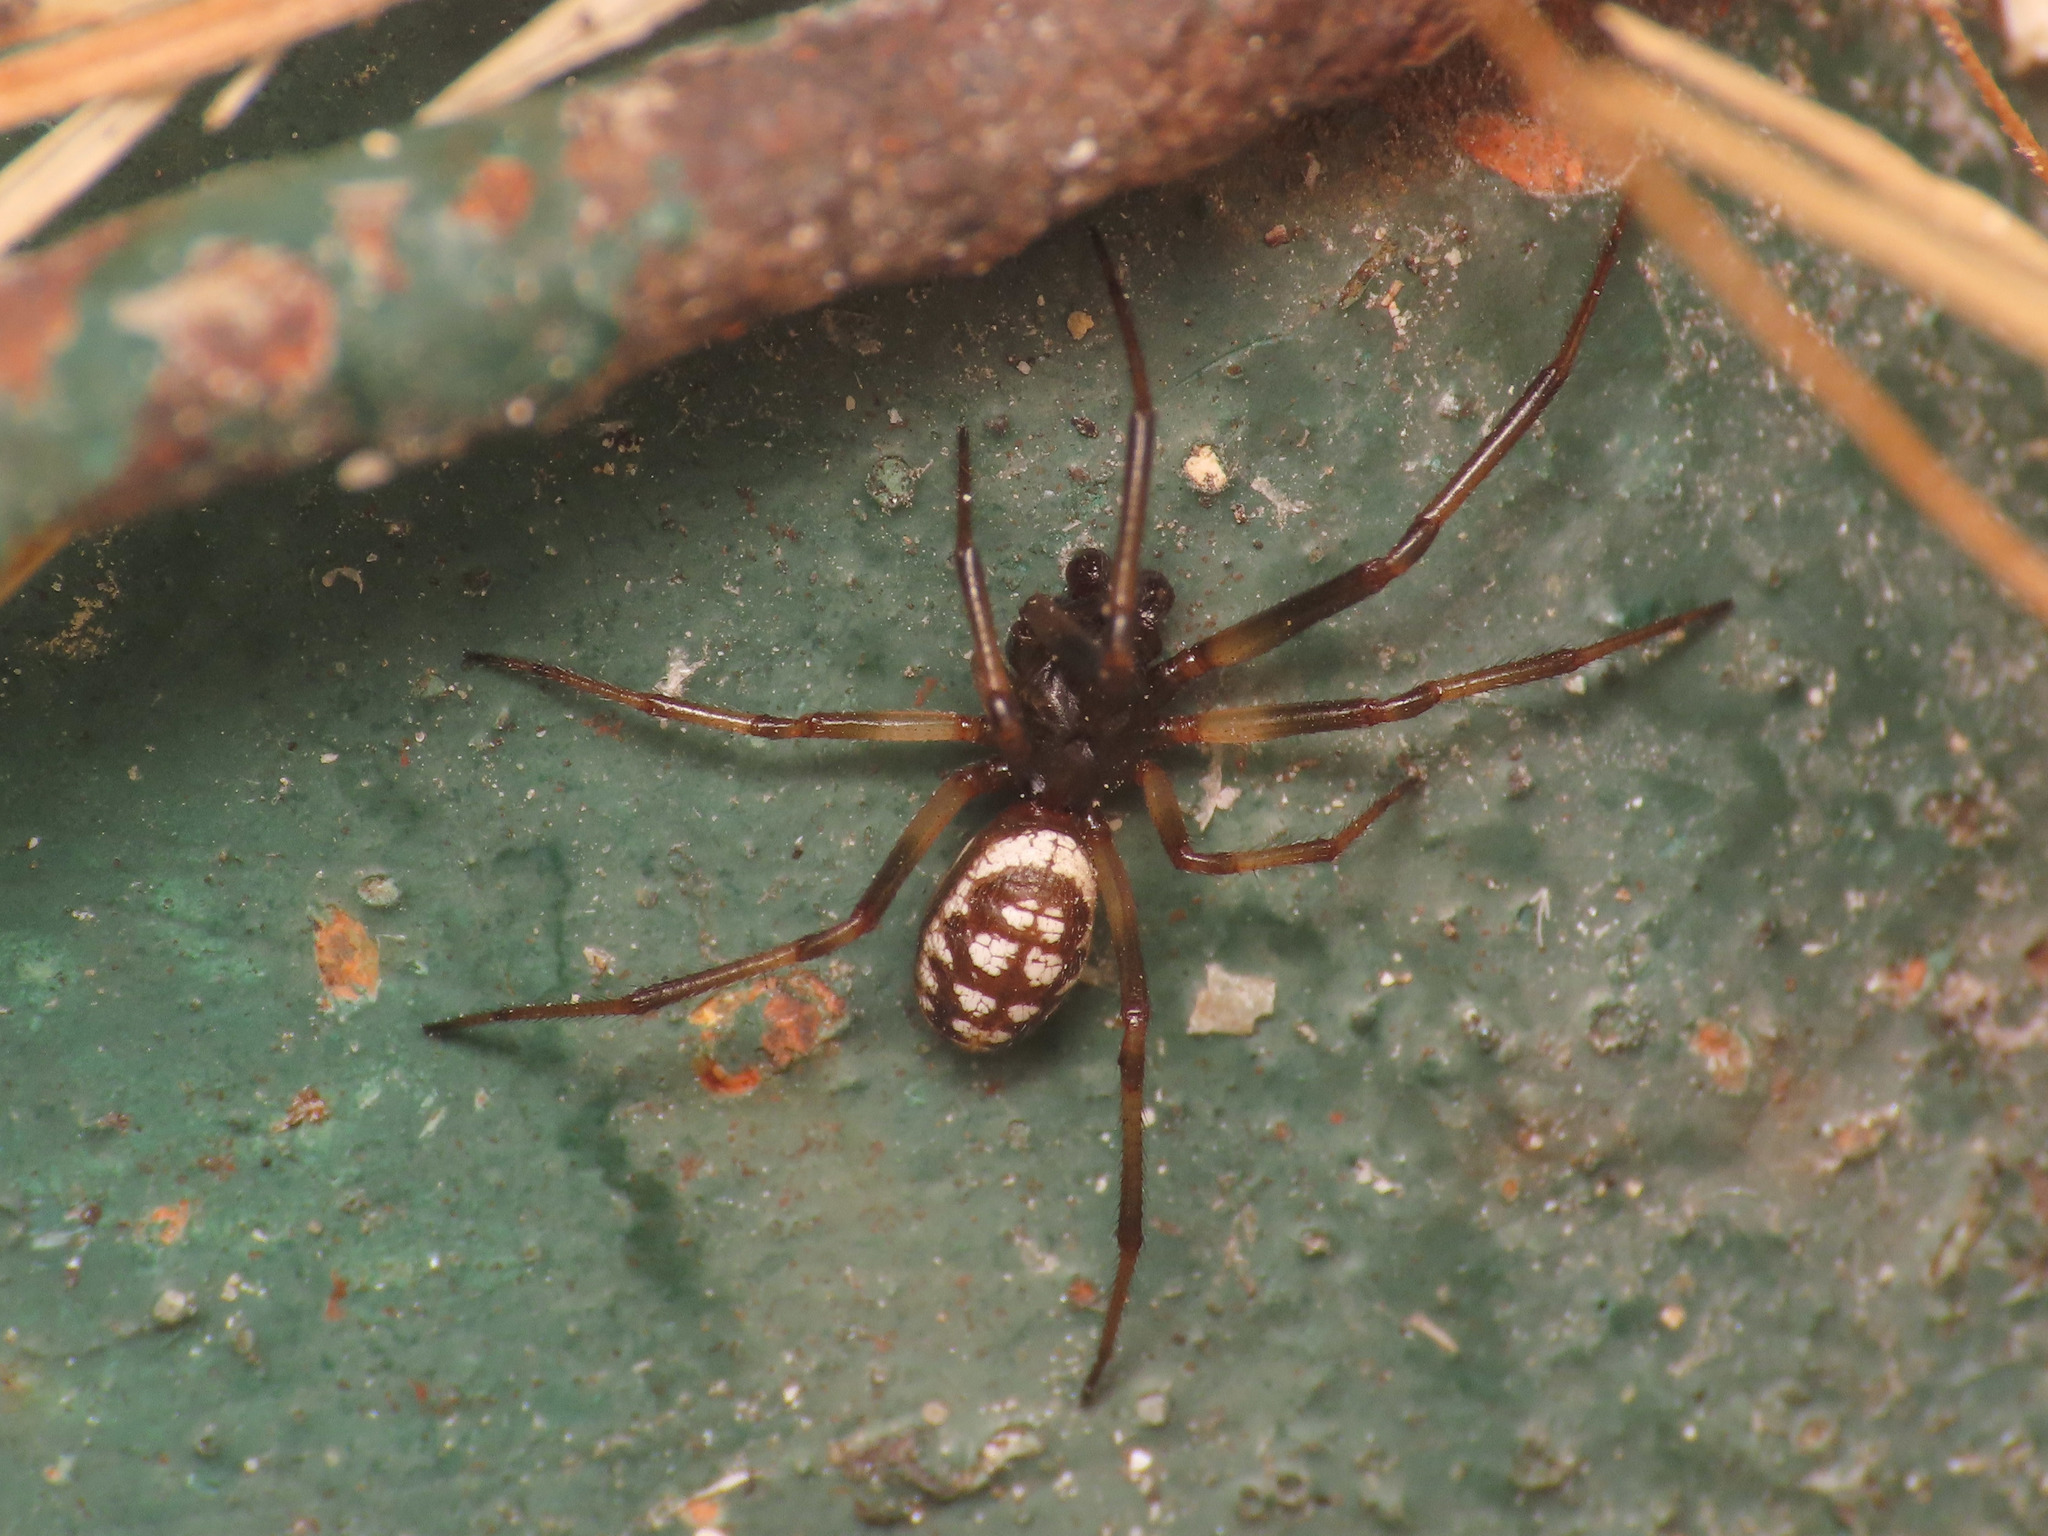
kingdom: Animalia
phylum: Arthropoda
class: Arachnida
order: Araneae
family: Theridiidae
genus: Steatoda
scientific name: Steatoda albomaculata
